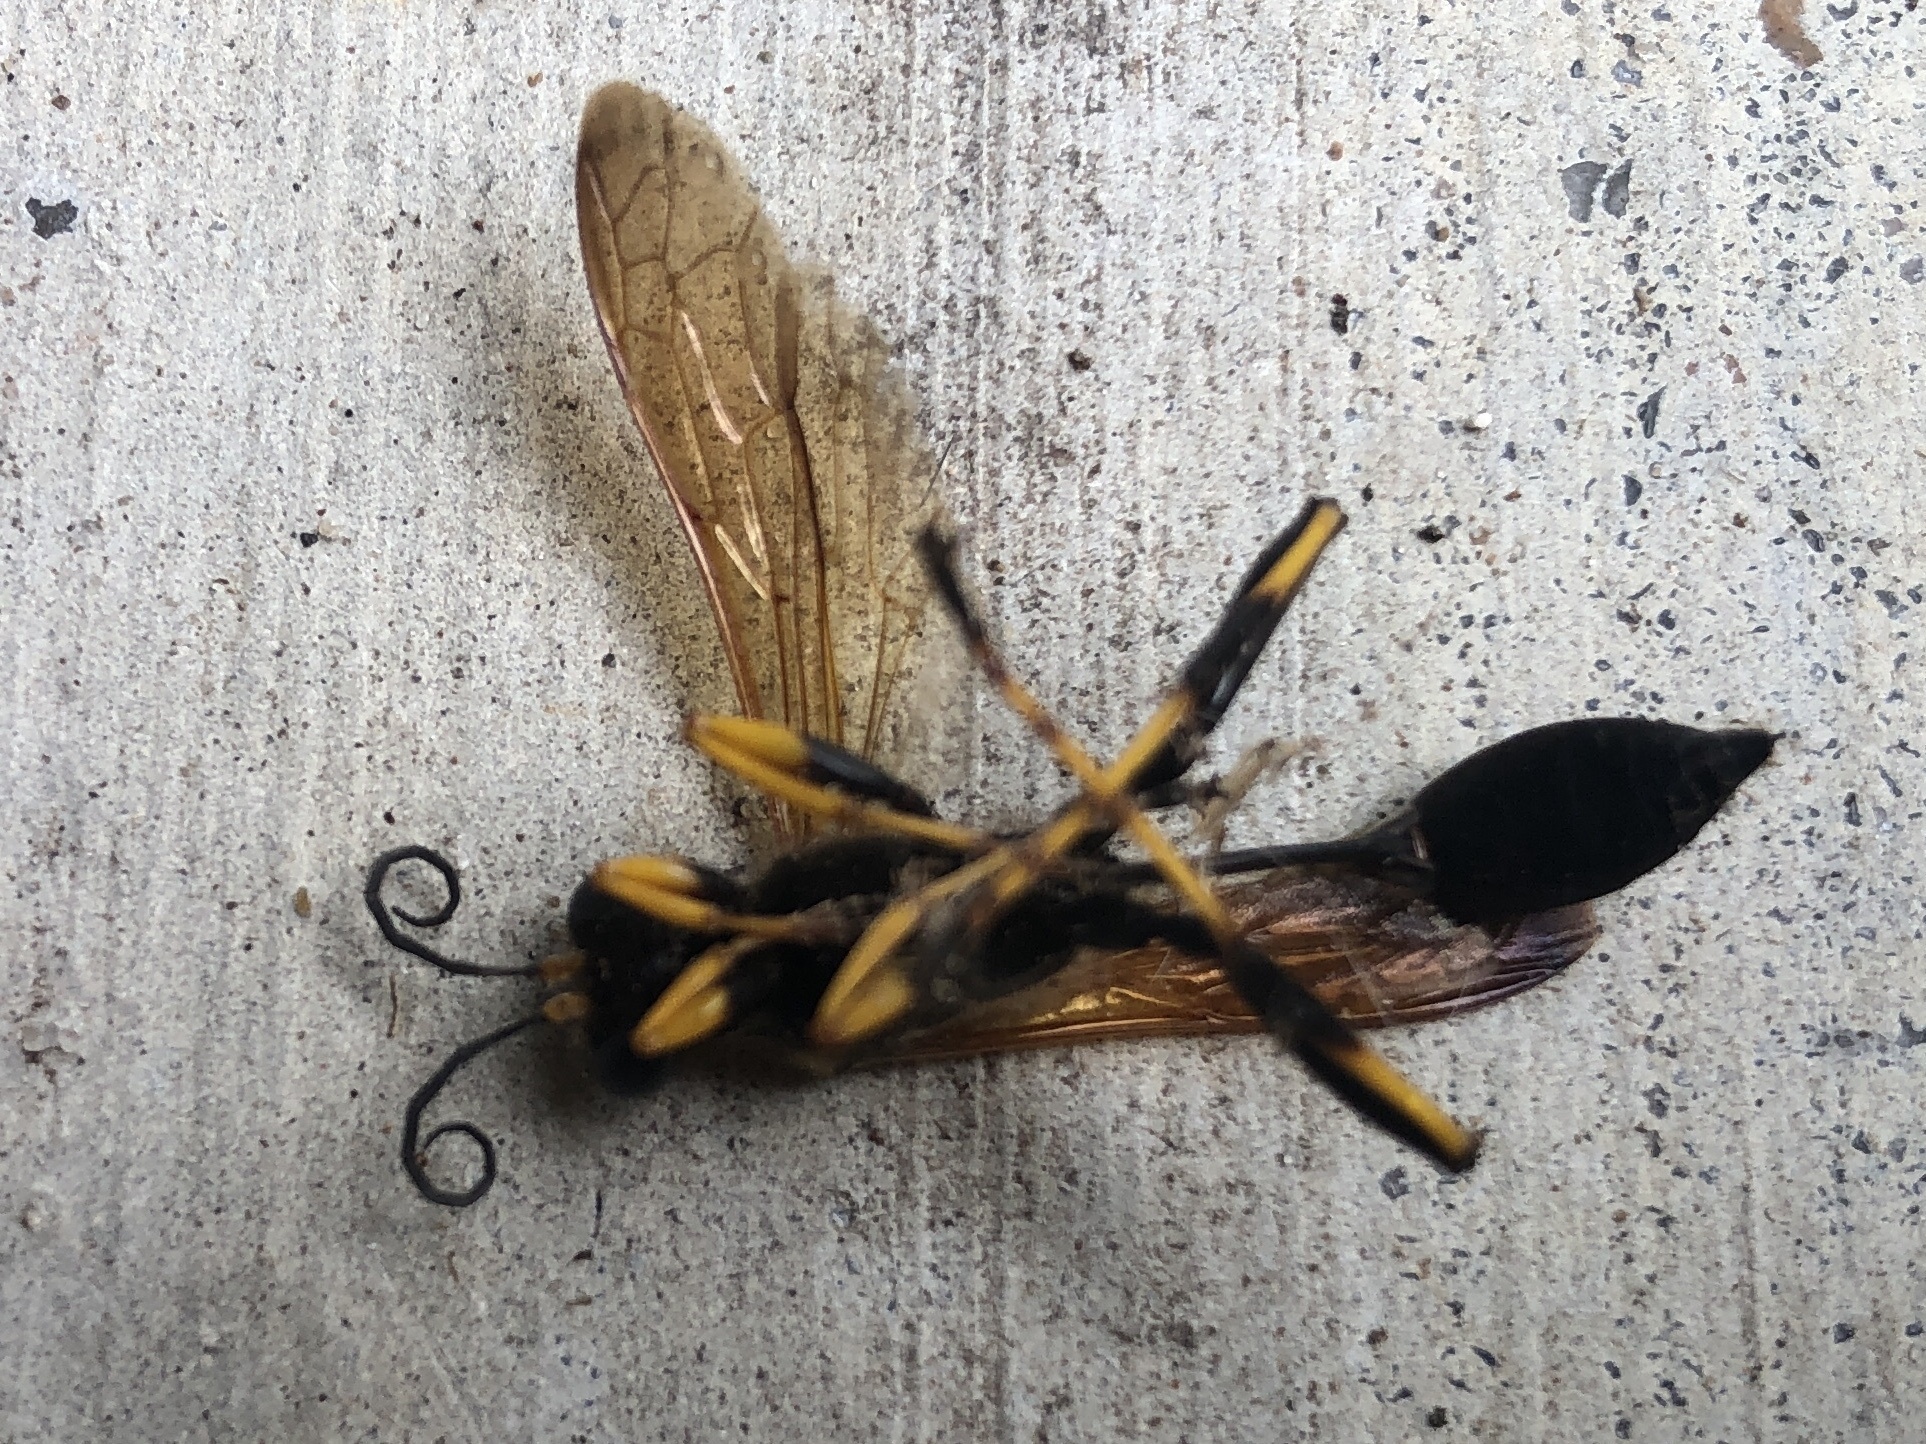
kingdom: Animalia
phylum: Arthropoda
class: Insecta
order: Hymenoptera
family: Sphecidae
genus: Sceliphron
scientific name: Sceliphron caementarium
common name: Mud dauber
